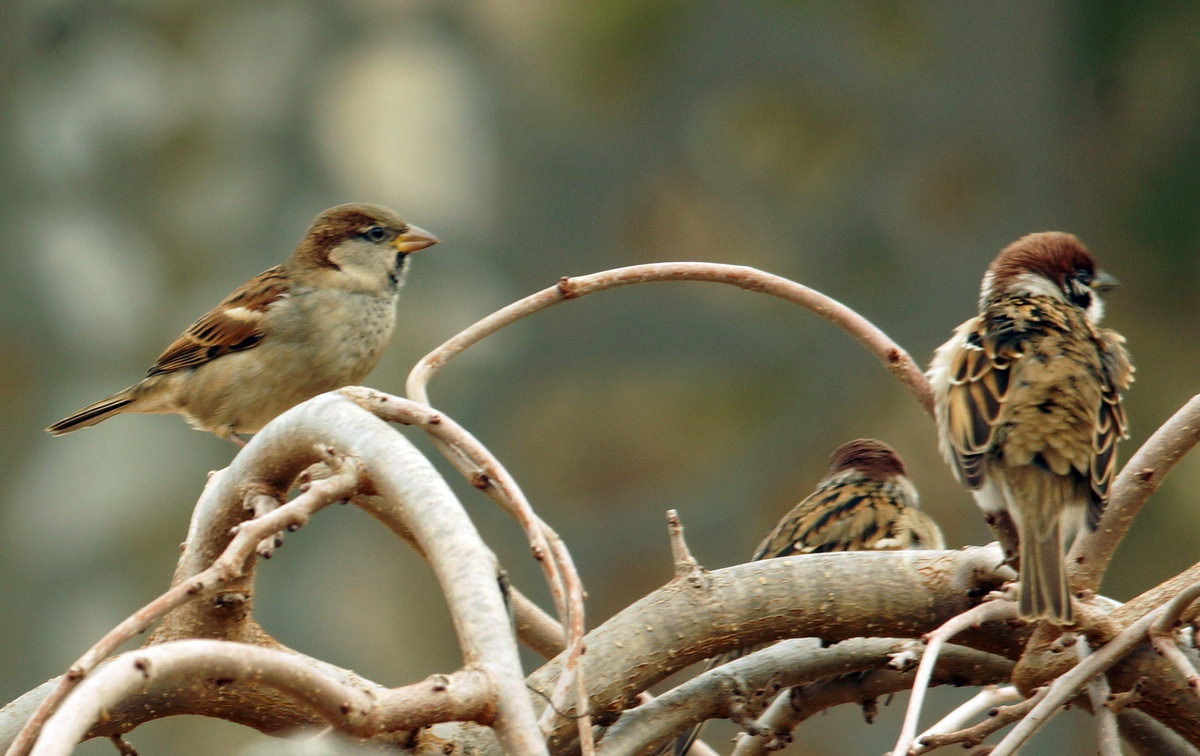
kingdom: Animalia
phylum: Chordata
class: Aves
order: Passeriformes
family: Passeridae
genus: Passer
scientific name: Passer domesticus
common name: House sparrow
